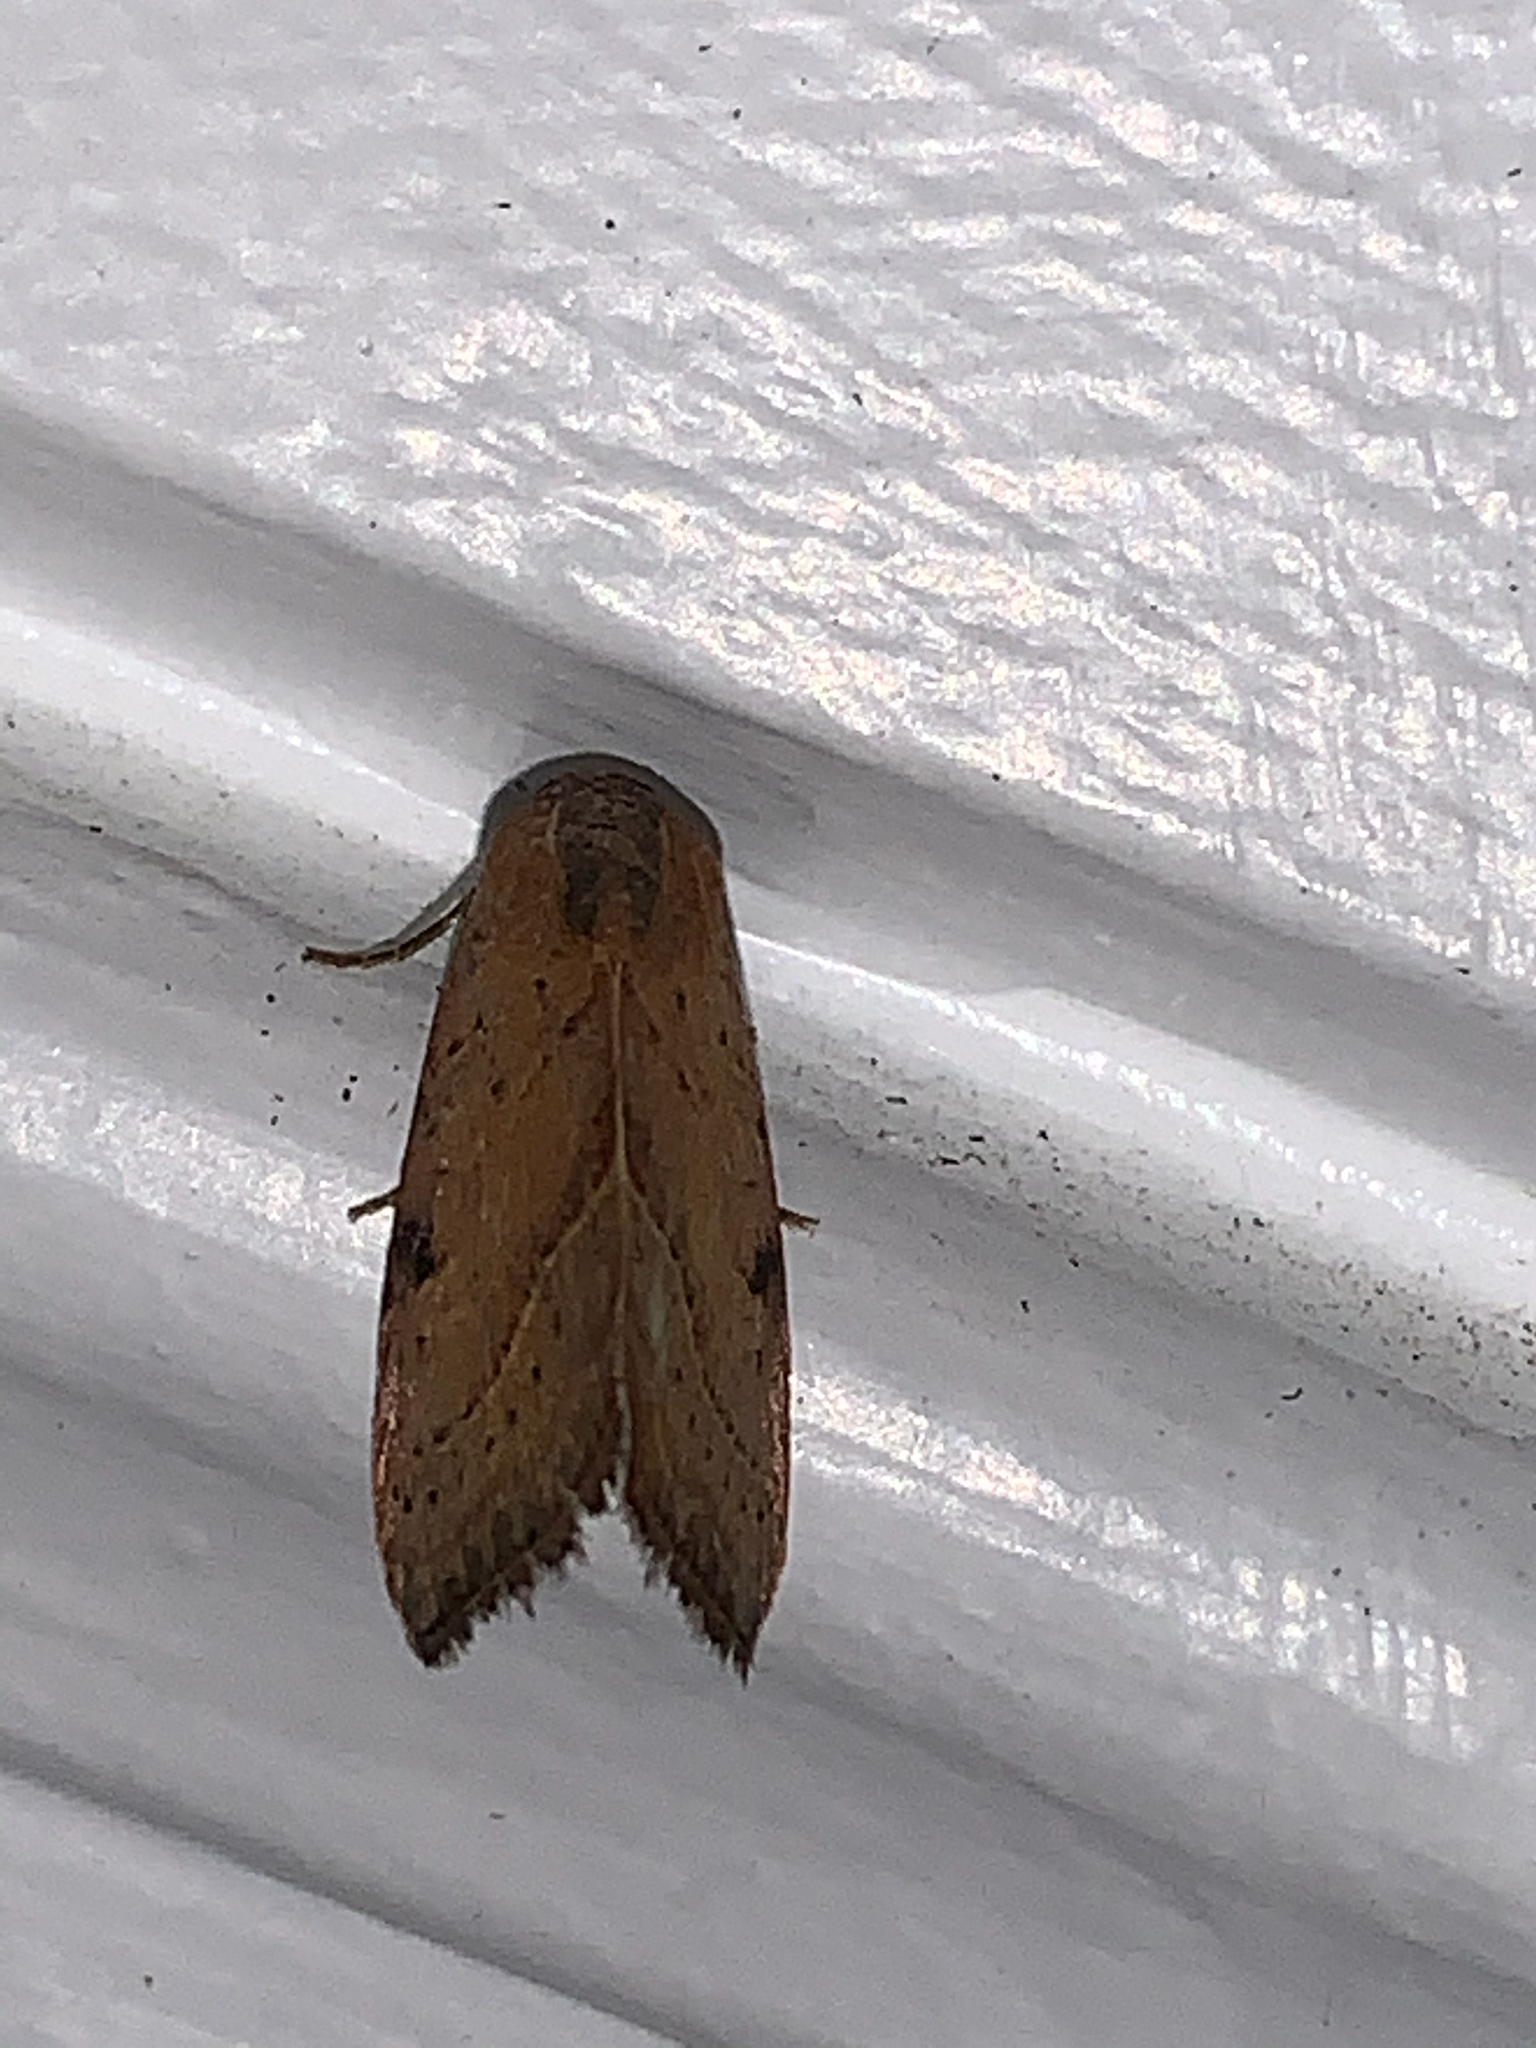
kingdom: Animalia
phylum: Arthropoda
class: Insecta
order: Lepidoptera
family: Noctuidae
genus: Galgula
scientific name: Galgula partita
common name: Wedgeling
